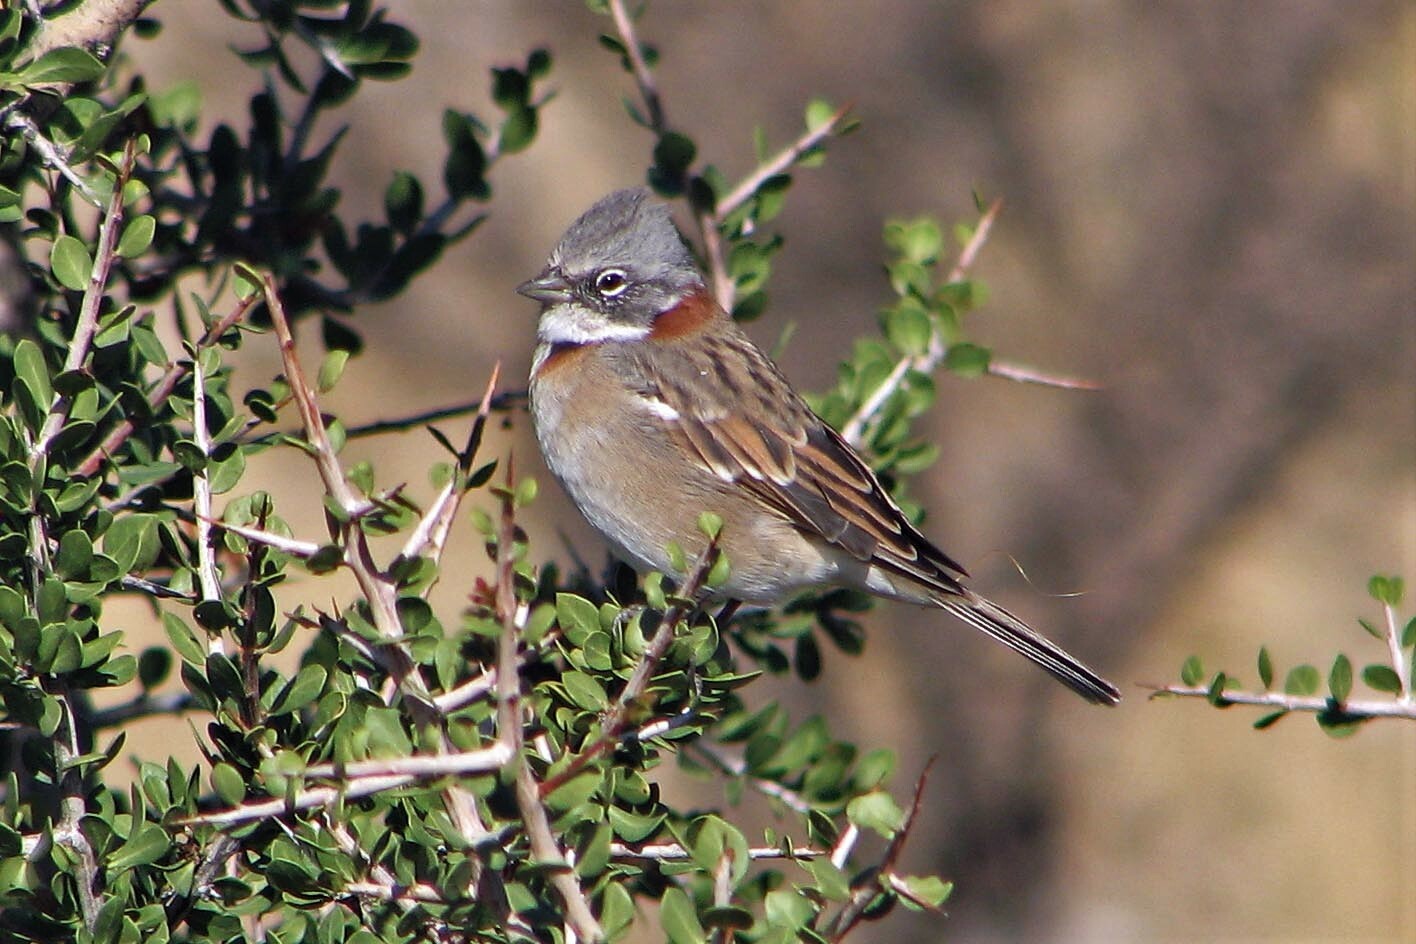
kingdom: Animalia
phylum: Chordata
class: Aves
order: Passeriformes
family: Passerellidae
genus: Zonotrichia
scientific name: Zonotrichia capensis
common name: Rufous-collared sparrow
